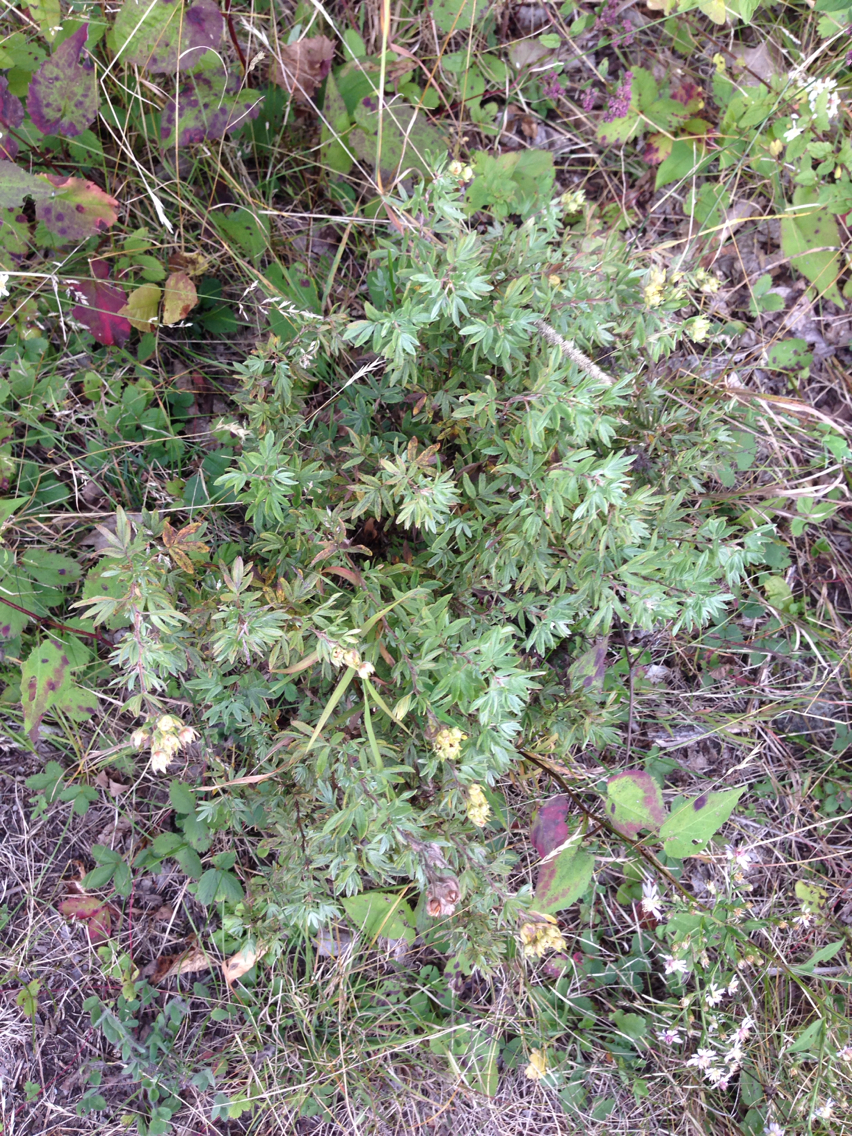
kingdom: Plantae
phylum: Tracheophyta
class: Magnoliopsida
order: Rosales
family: Rosaceae
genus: Dasiphora
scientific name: Dasiphora fruticosa
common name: Shrubby cinquefoil
